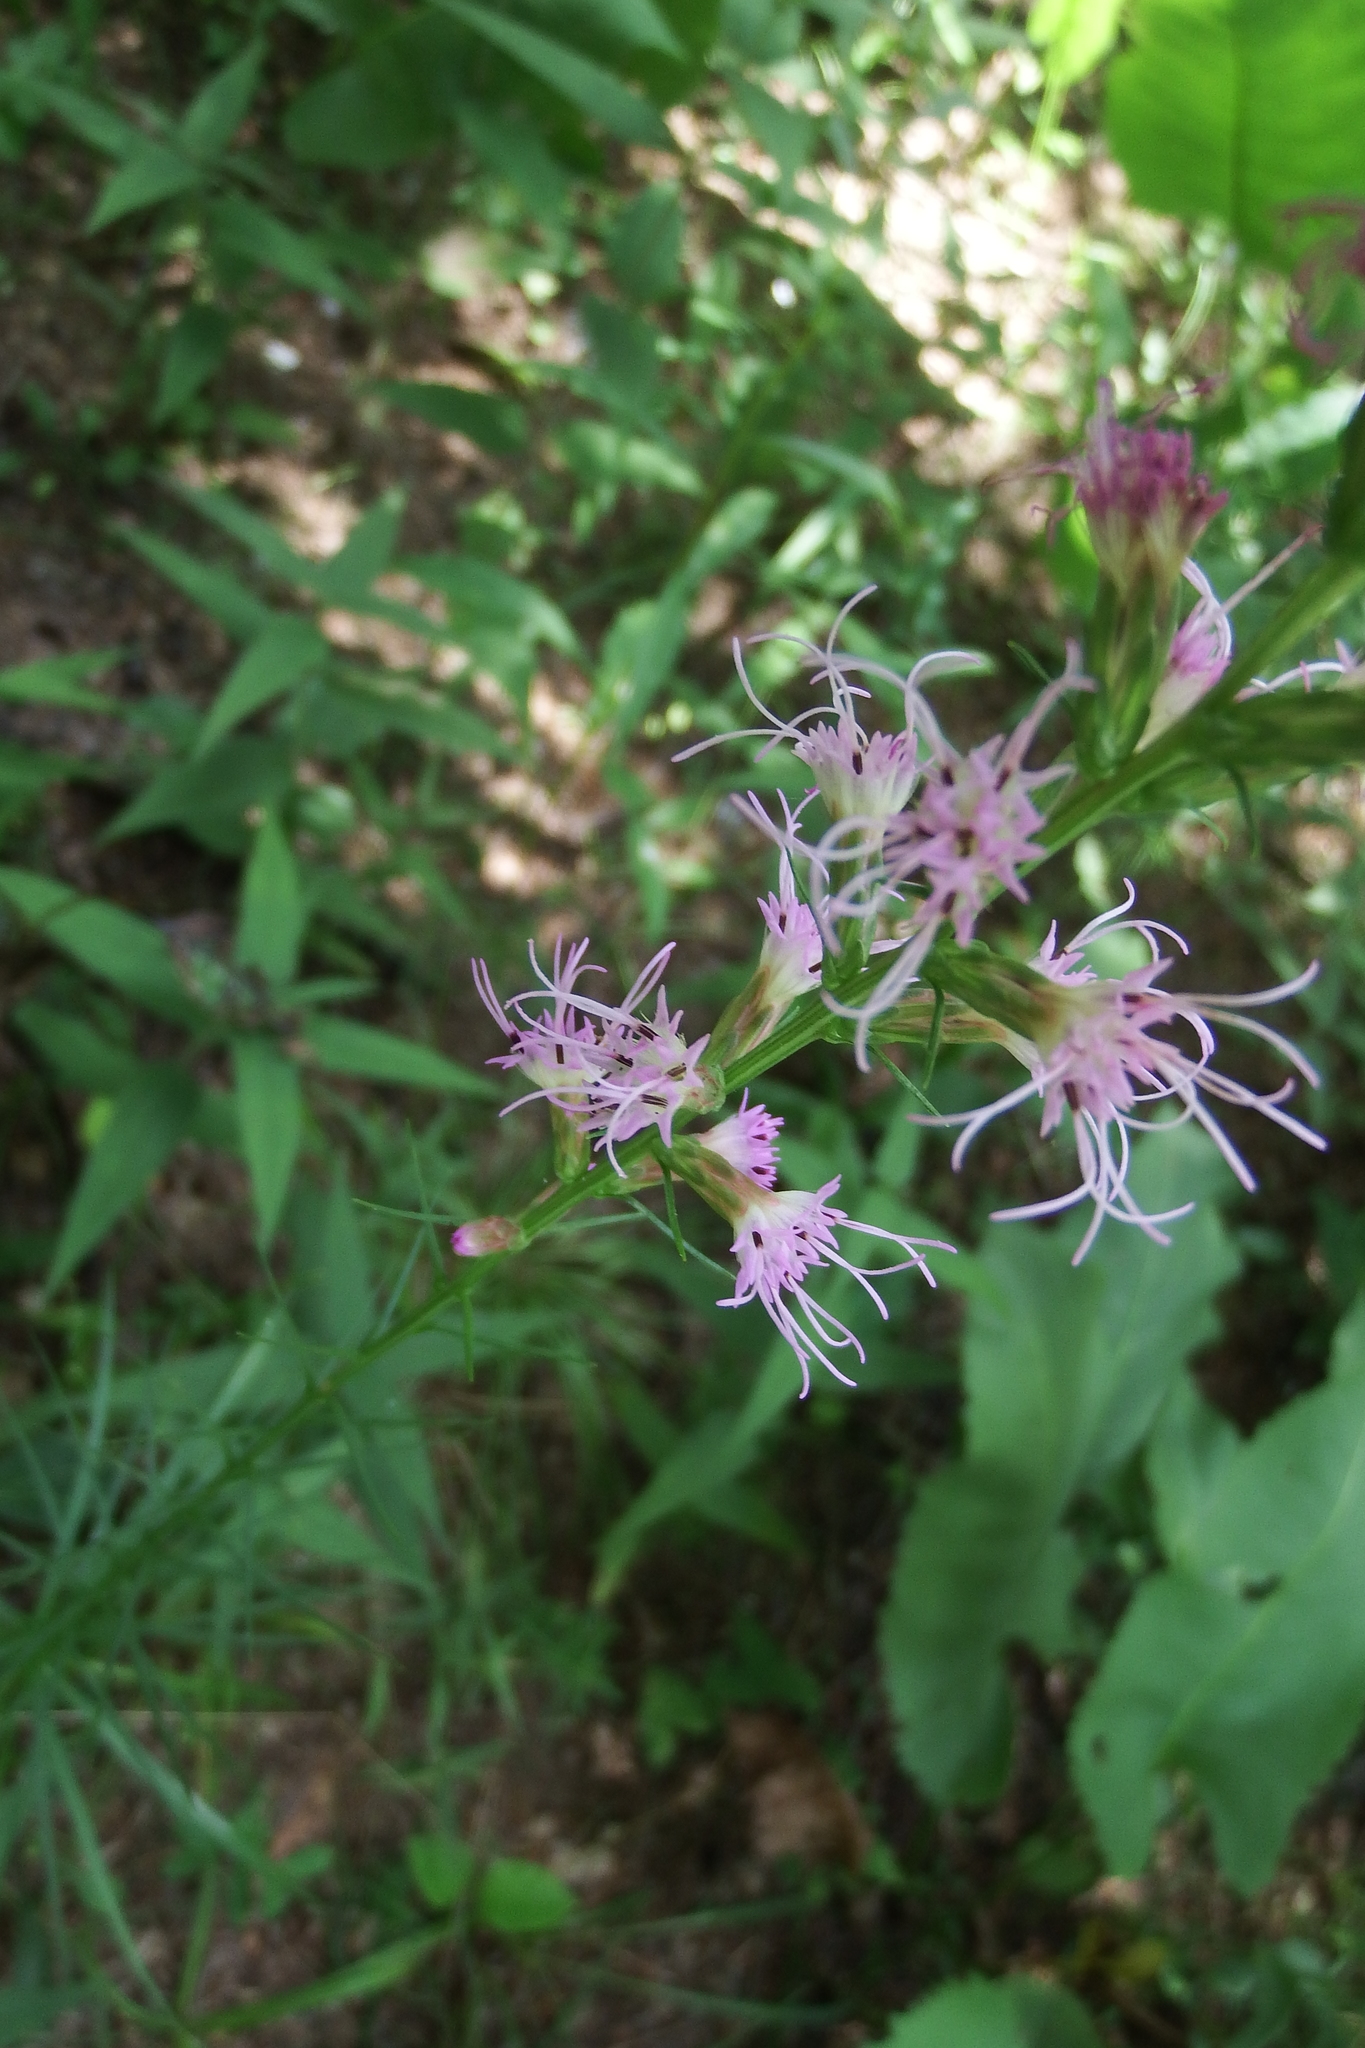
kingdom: Plantae
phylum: Tracheophyta
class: Magnoliopsida
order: Asterales
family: Asteraceae
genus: Liatris
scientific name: Liatris spicata
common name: Florist gayfeather
